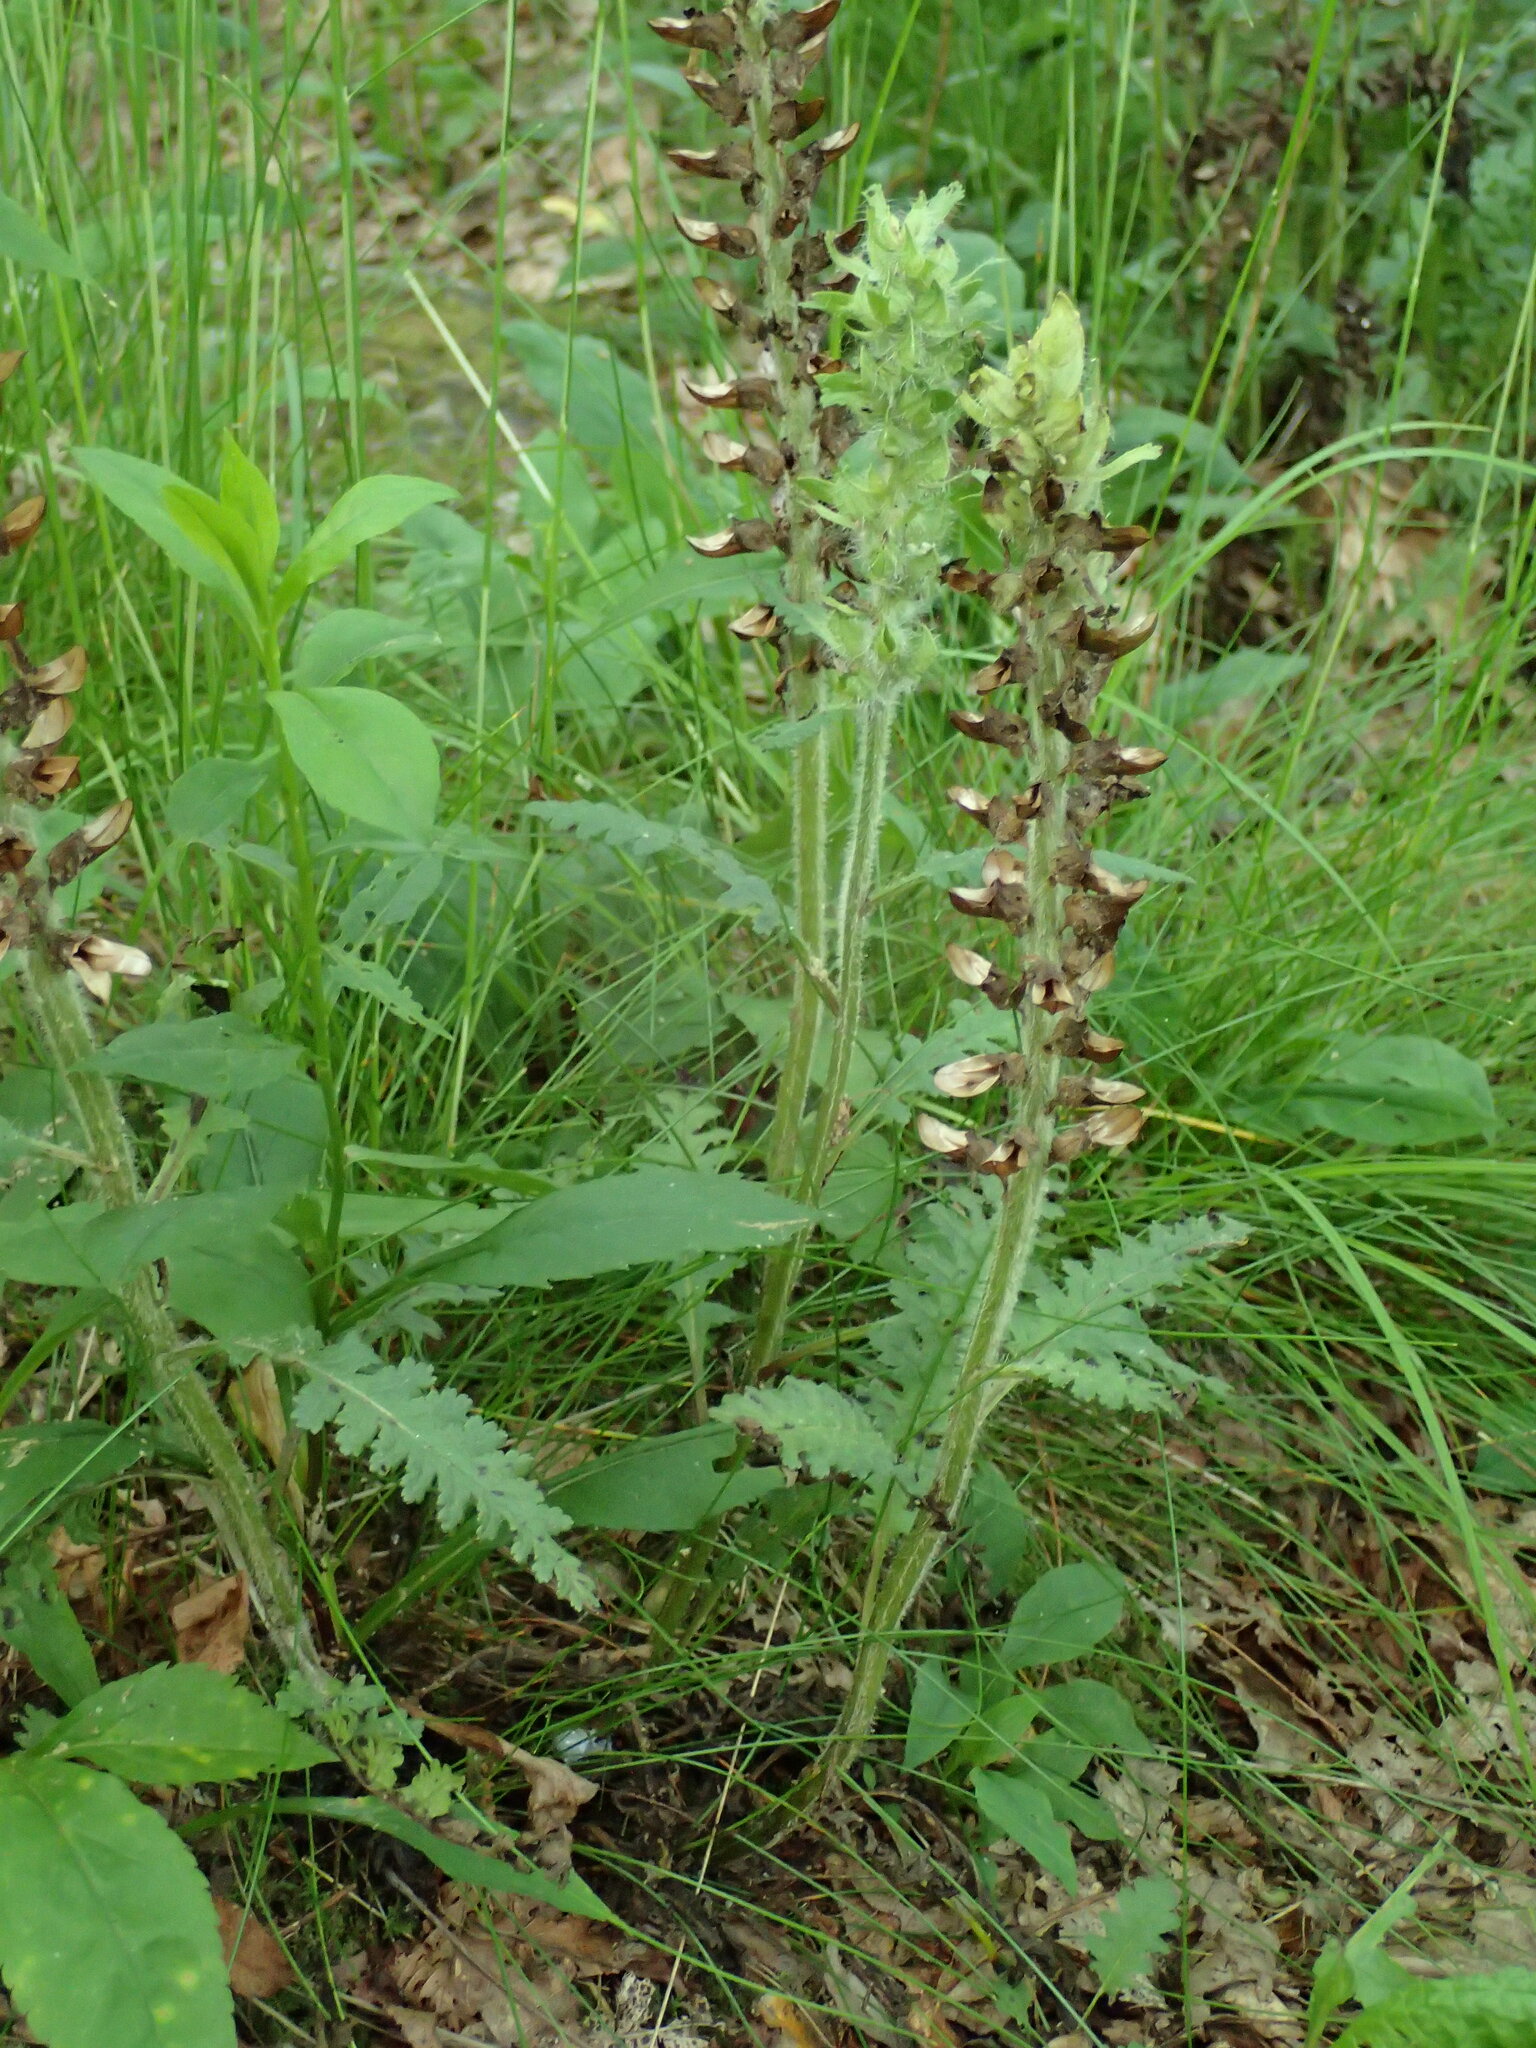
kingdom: Plantae
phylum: Tracheophyta
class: Magnoliopsida
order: Lamiales
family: Orobanchaceae
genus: Pedicularis
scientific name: Pedicularis canadensis
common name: Early lousewort
